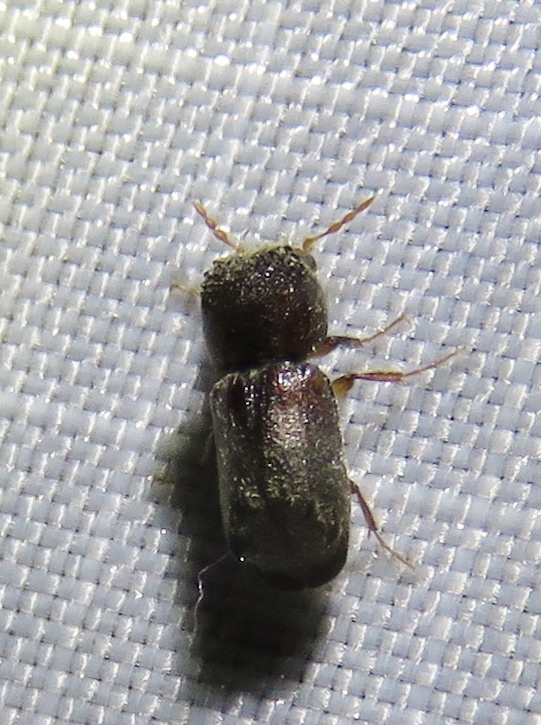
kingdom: Animalia
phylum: Arthropoda
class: Insecta
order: Coleoptera
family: Bostrichidae
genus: Xylobiops
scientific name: Xylobiops basilaris
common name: Red-shouldered bostrichid
